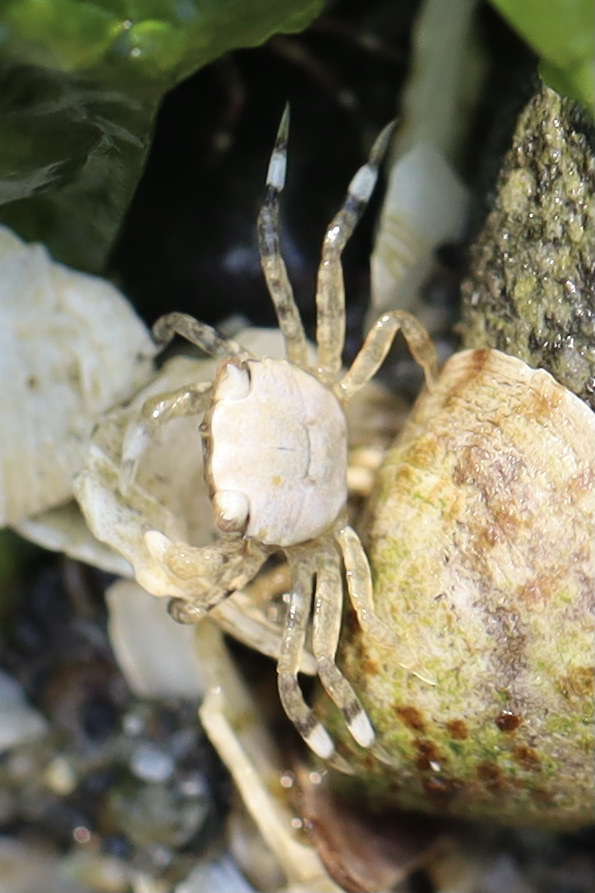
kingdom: Animalia
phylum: Arthropoda
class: Malacostraca
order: Decapoda
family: Varunidae
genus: Hemigrapsus
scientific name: Hemigrapsus oregonensis
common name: Yellow shore crab
